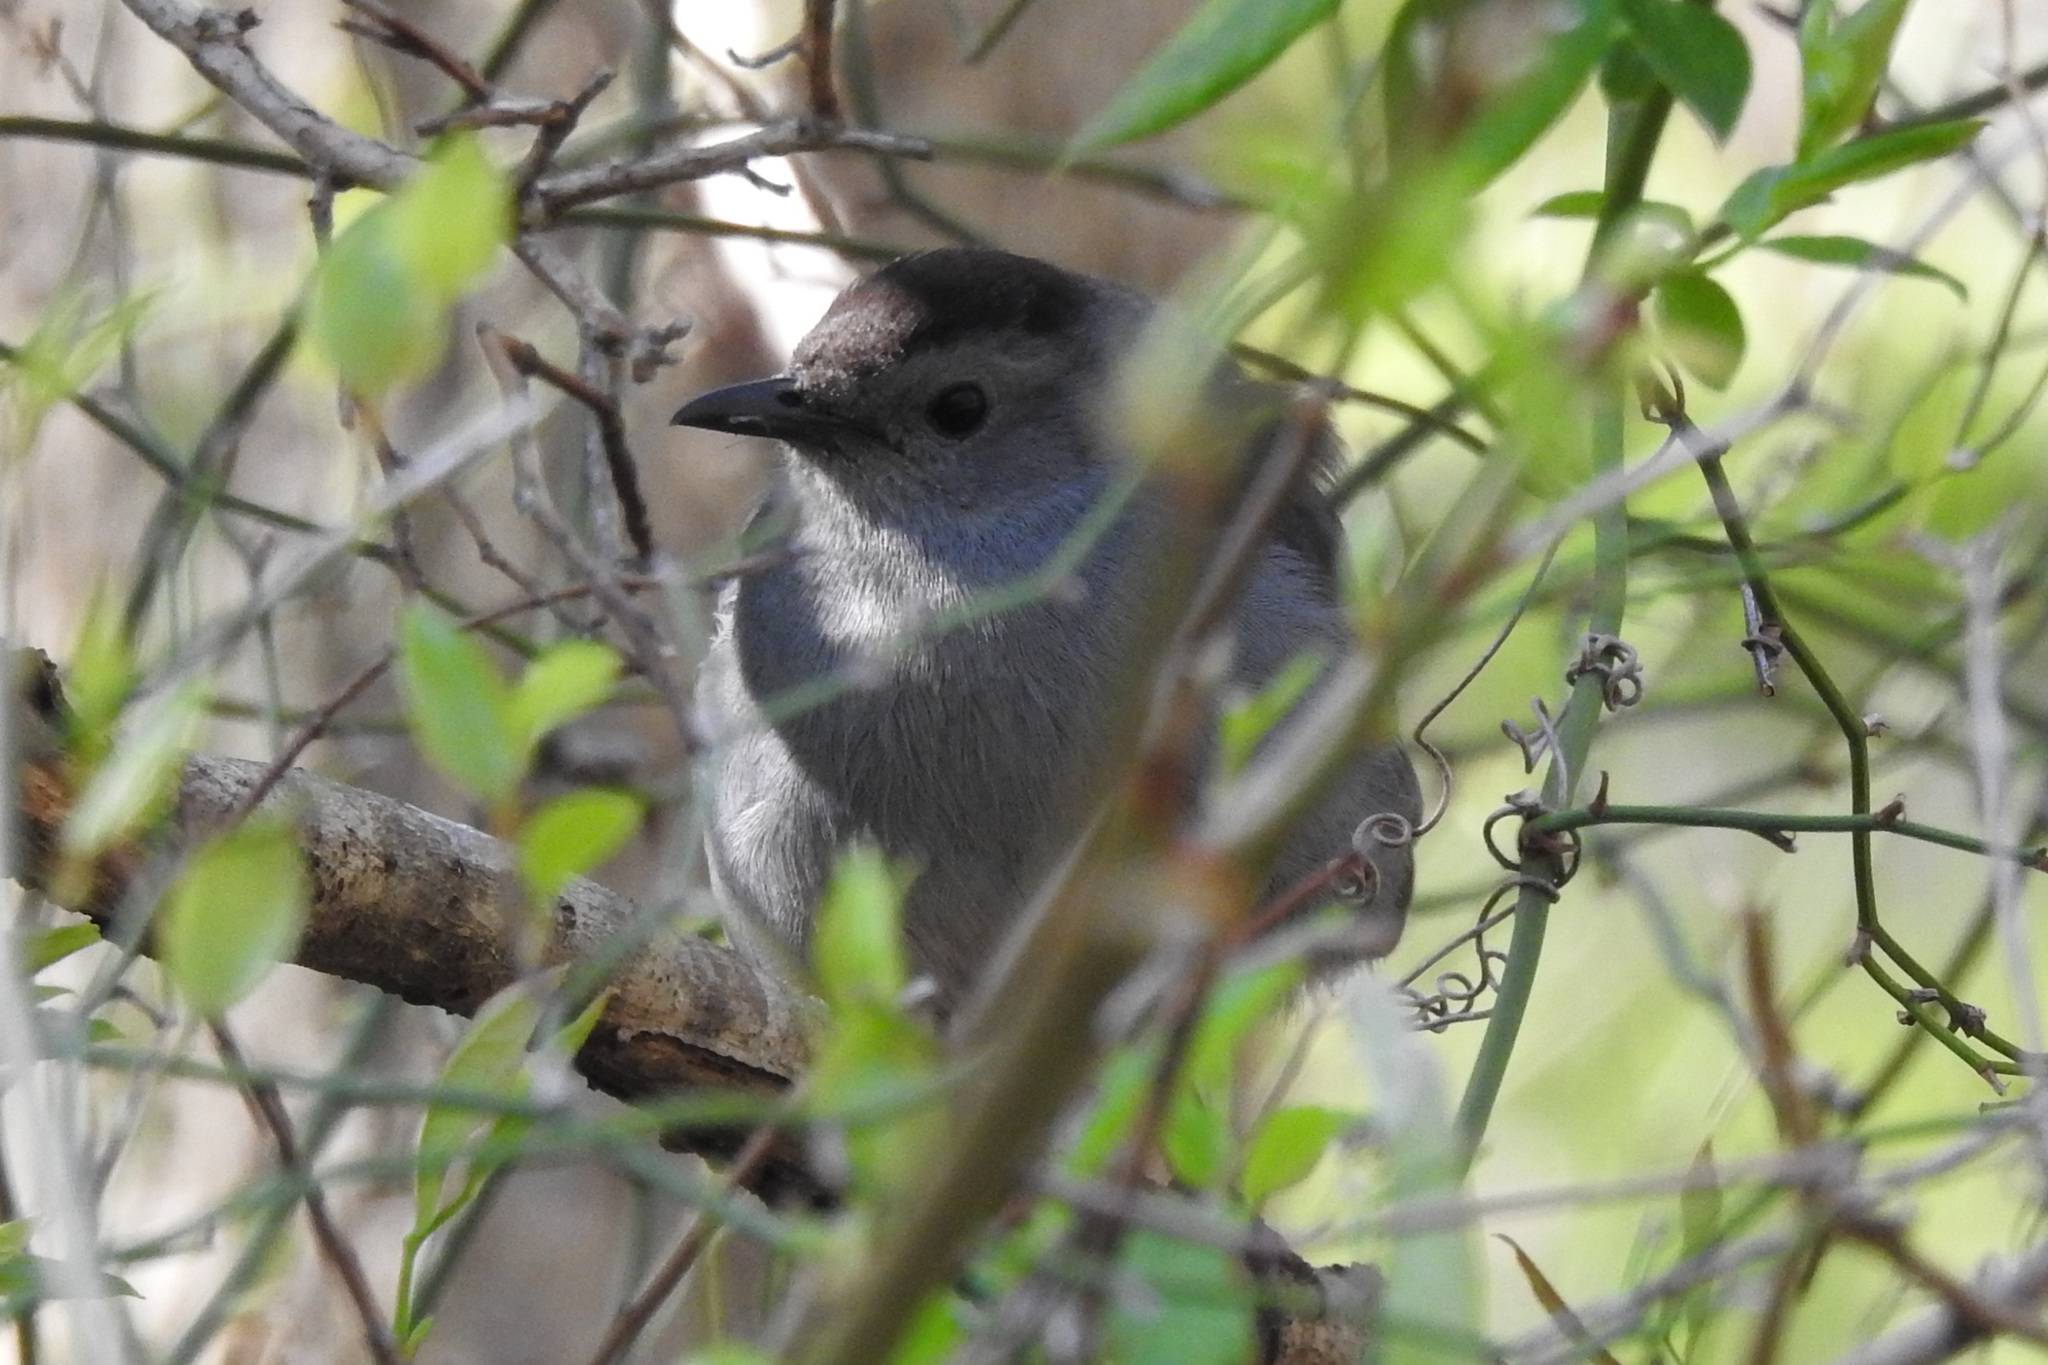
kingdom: Animalia
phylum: Chordata
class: Aves
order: Passeriformes
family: Mimidae
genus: Dumetella
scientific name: Dumetella carolinensis
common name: Gray catbird
